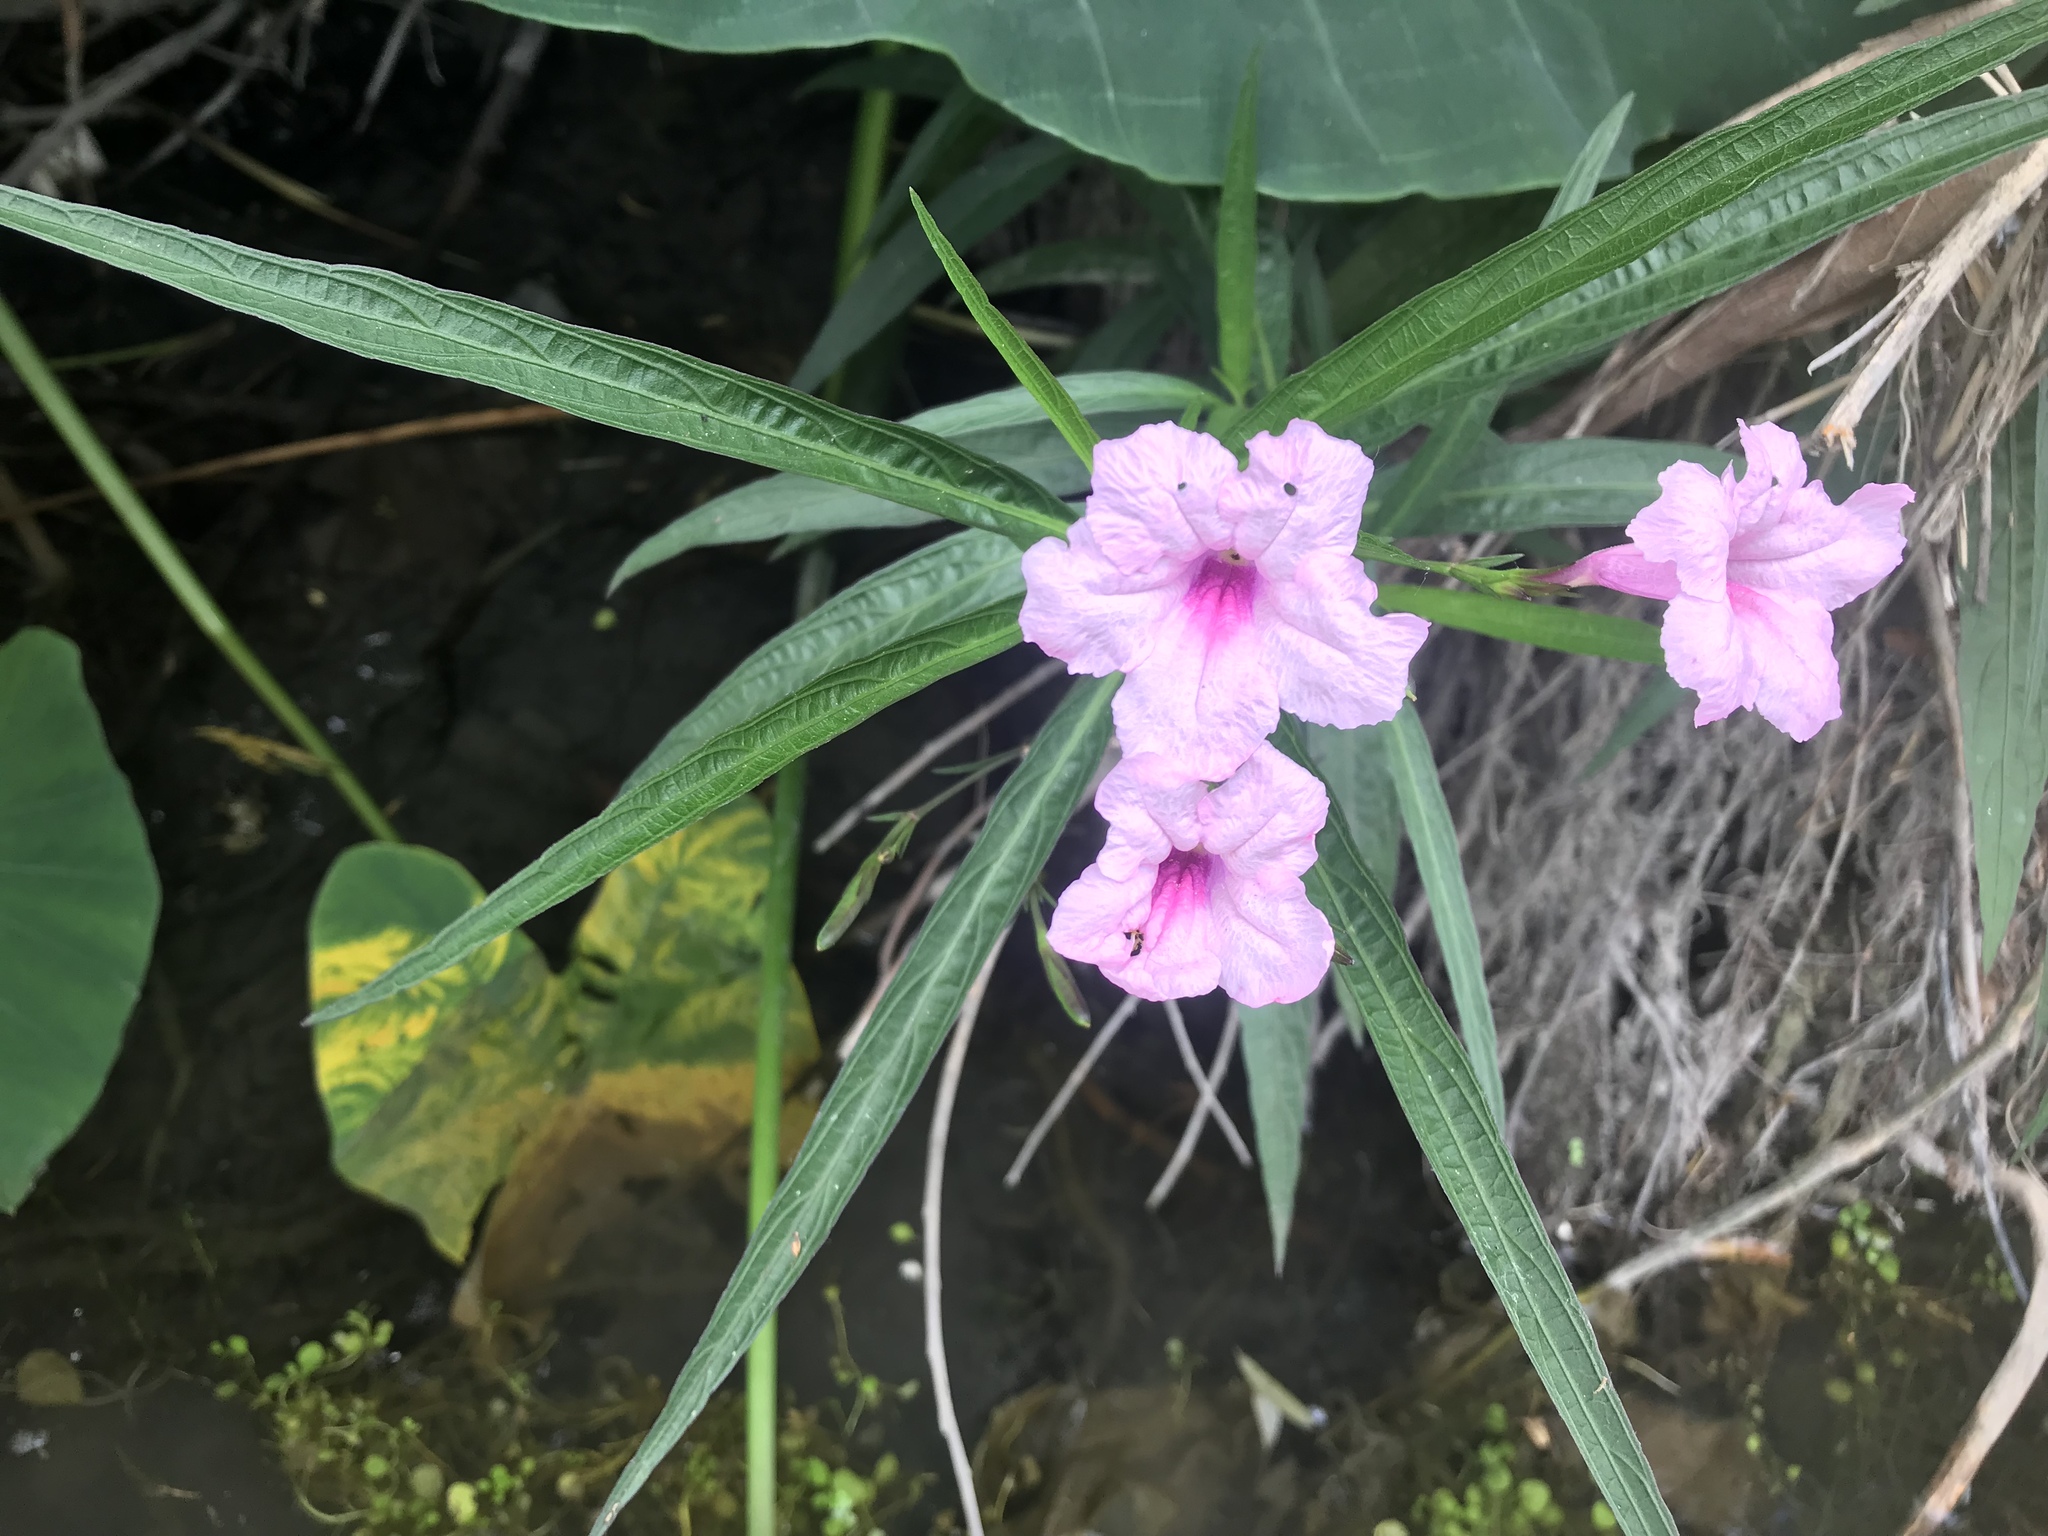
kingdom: Plantae
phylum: Tracheophyta
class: Magnoliopsida
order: Lamiales
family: Acanthaceae
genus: Ruellia
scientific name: Ruellia simplex
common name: Softseed wild petunia
